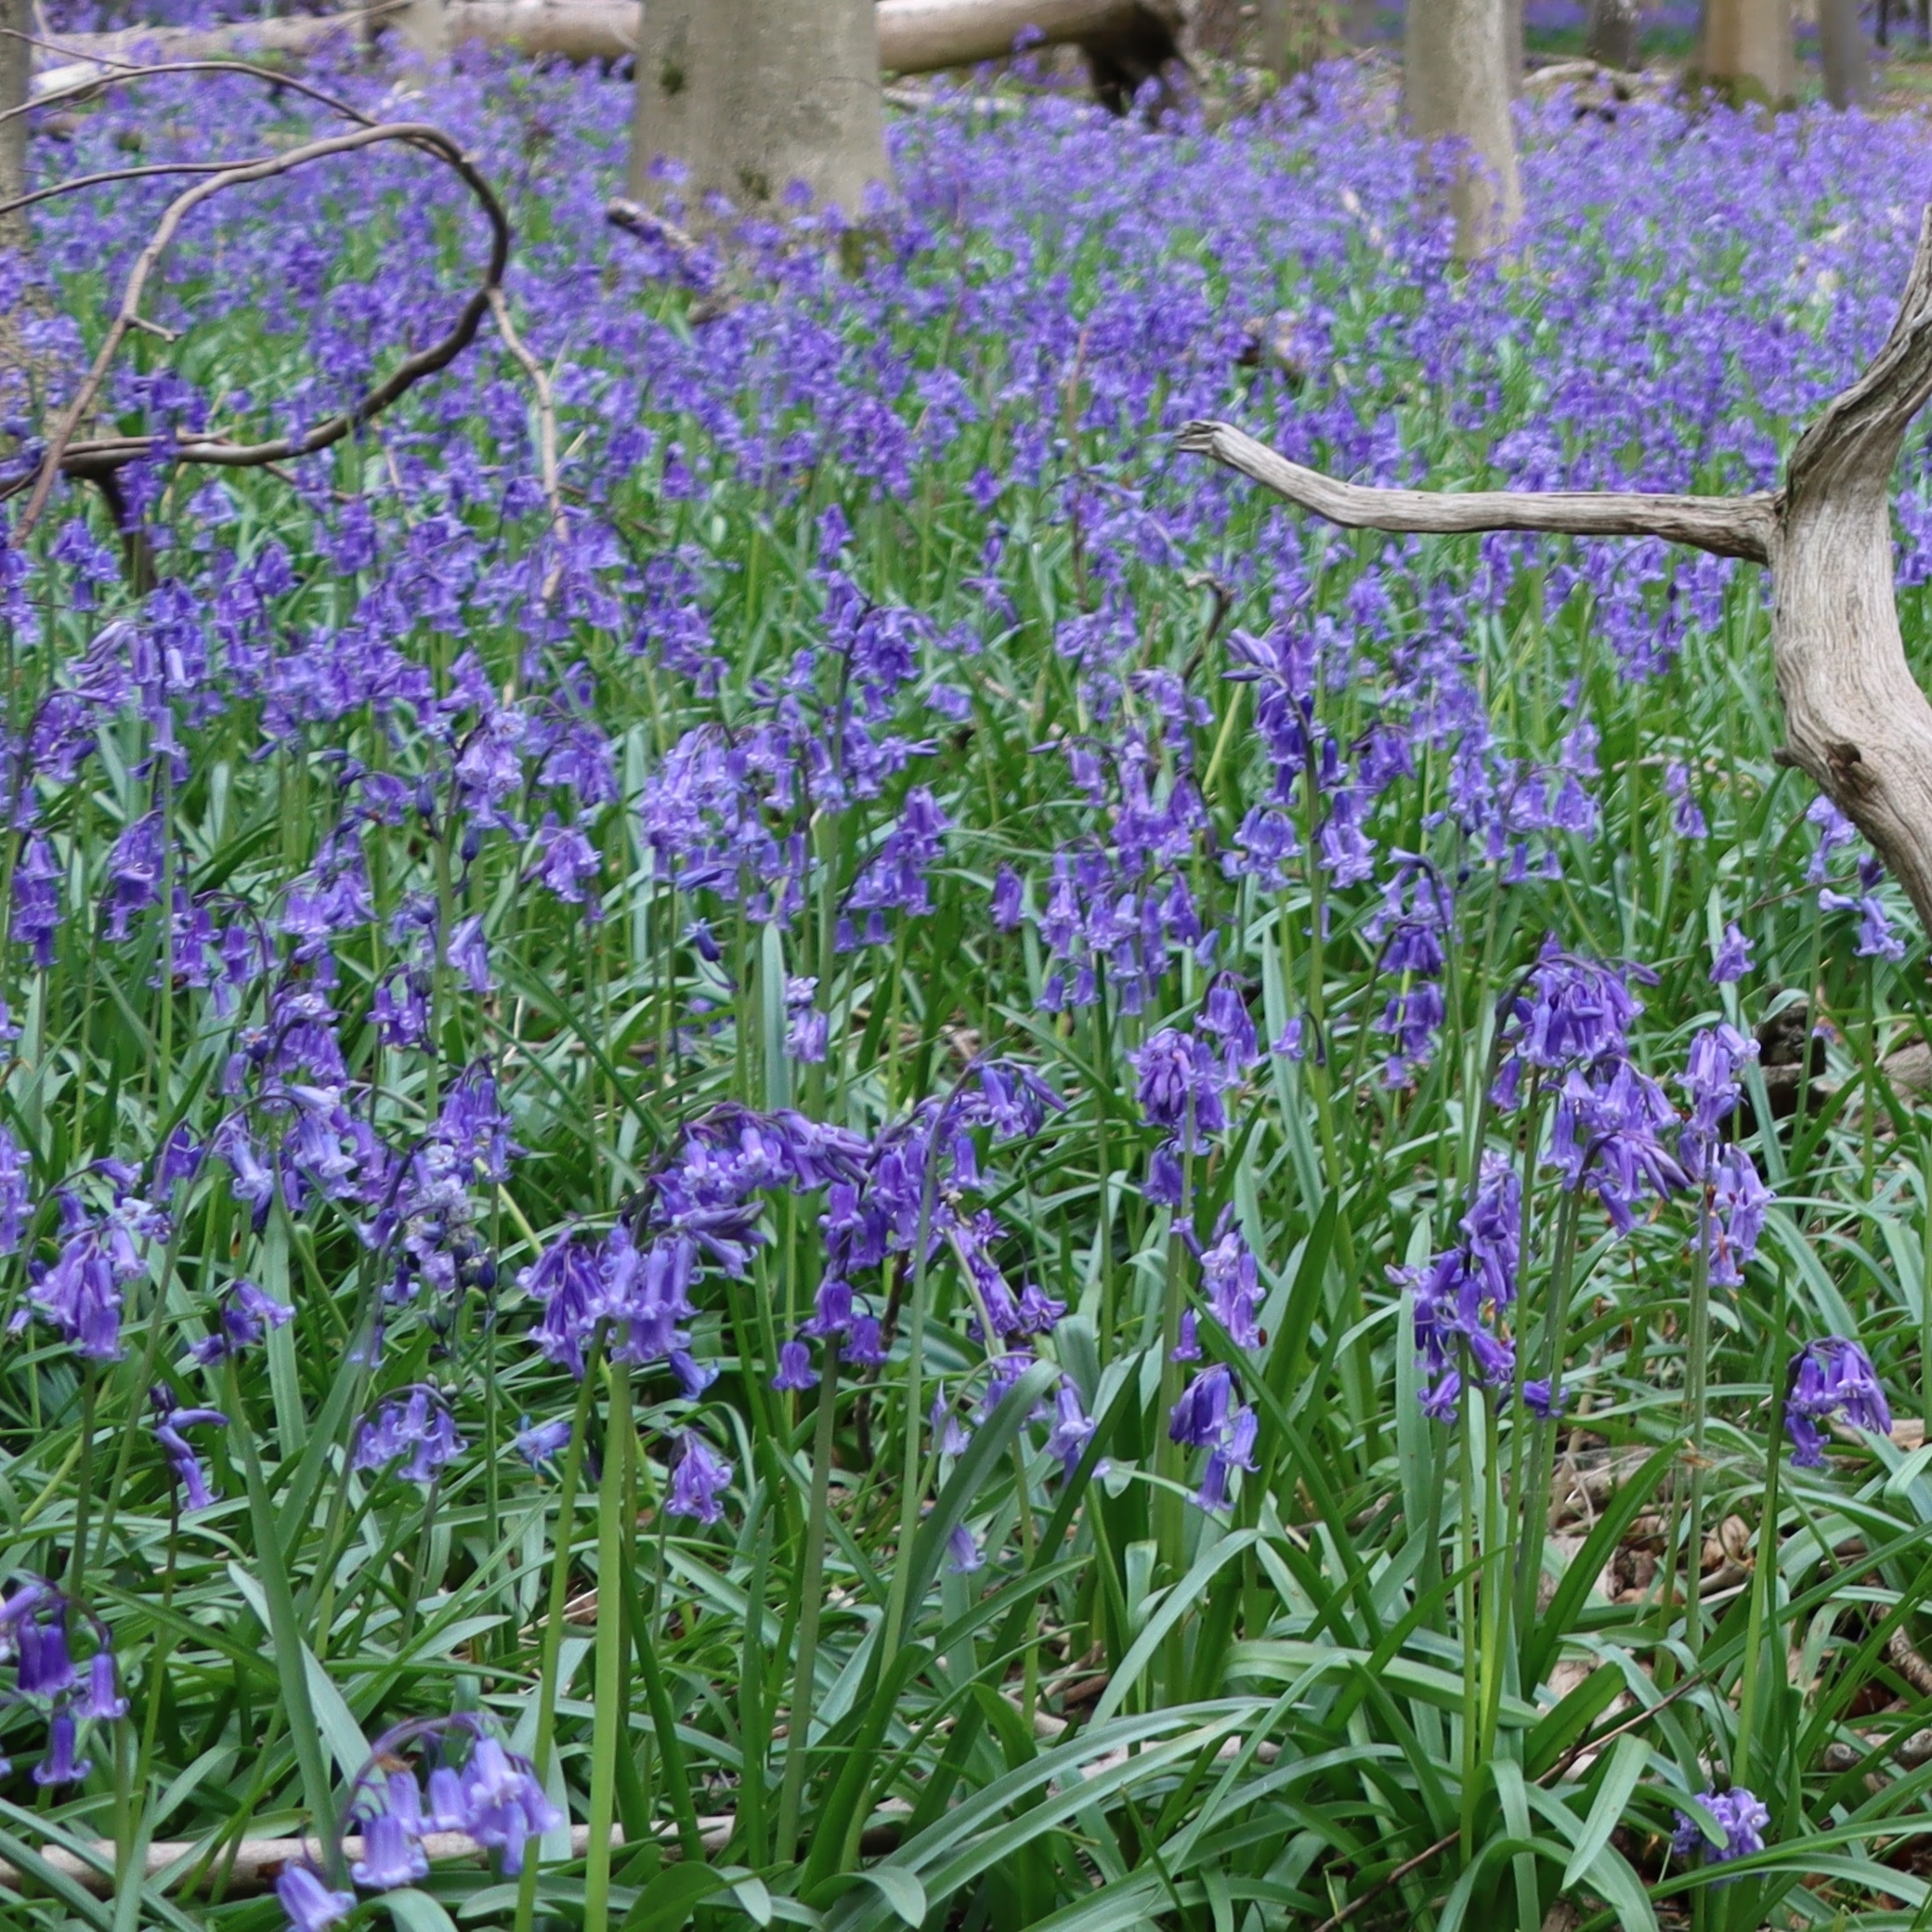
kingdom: Plantae
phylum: Tracheophyta
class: Liliopsida
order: Asparagales
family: Asparagaceae
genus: Hyacinthoides
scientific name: Hyacinthoides non-scripta
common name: Bluebell
